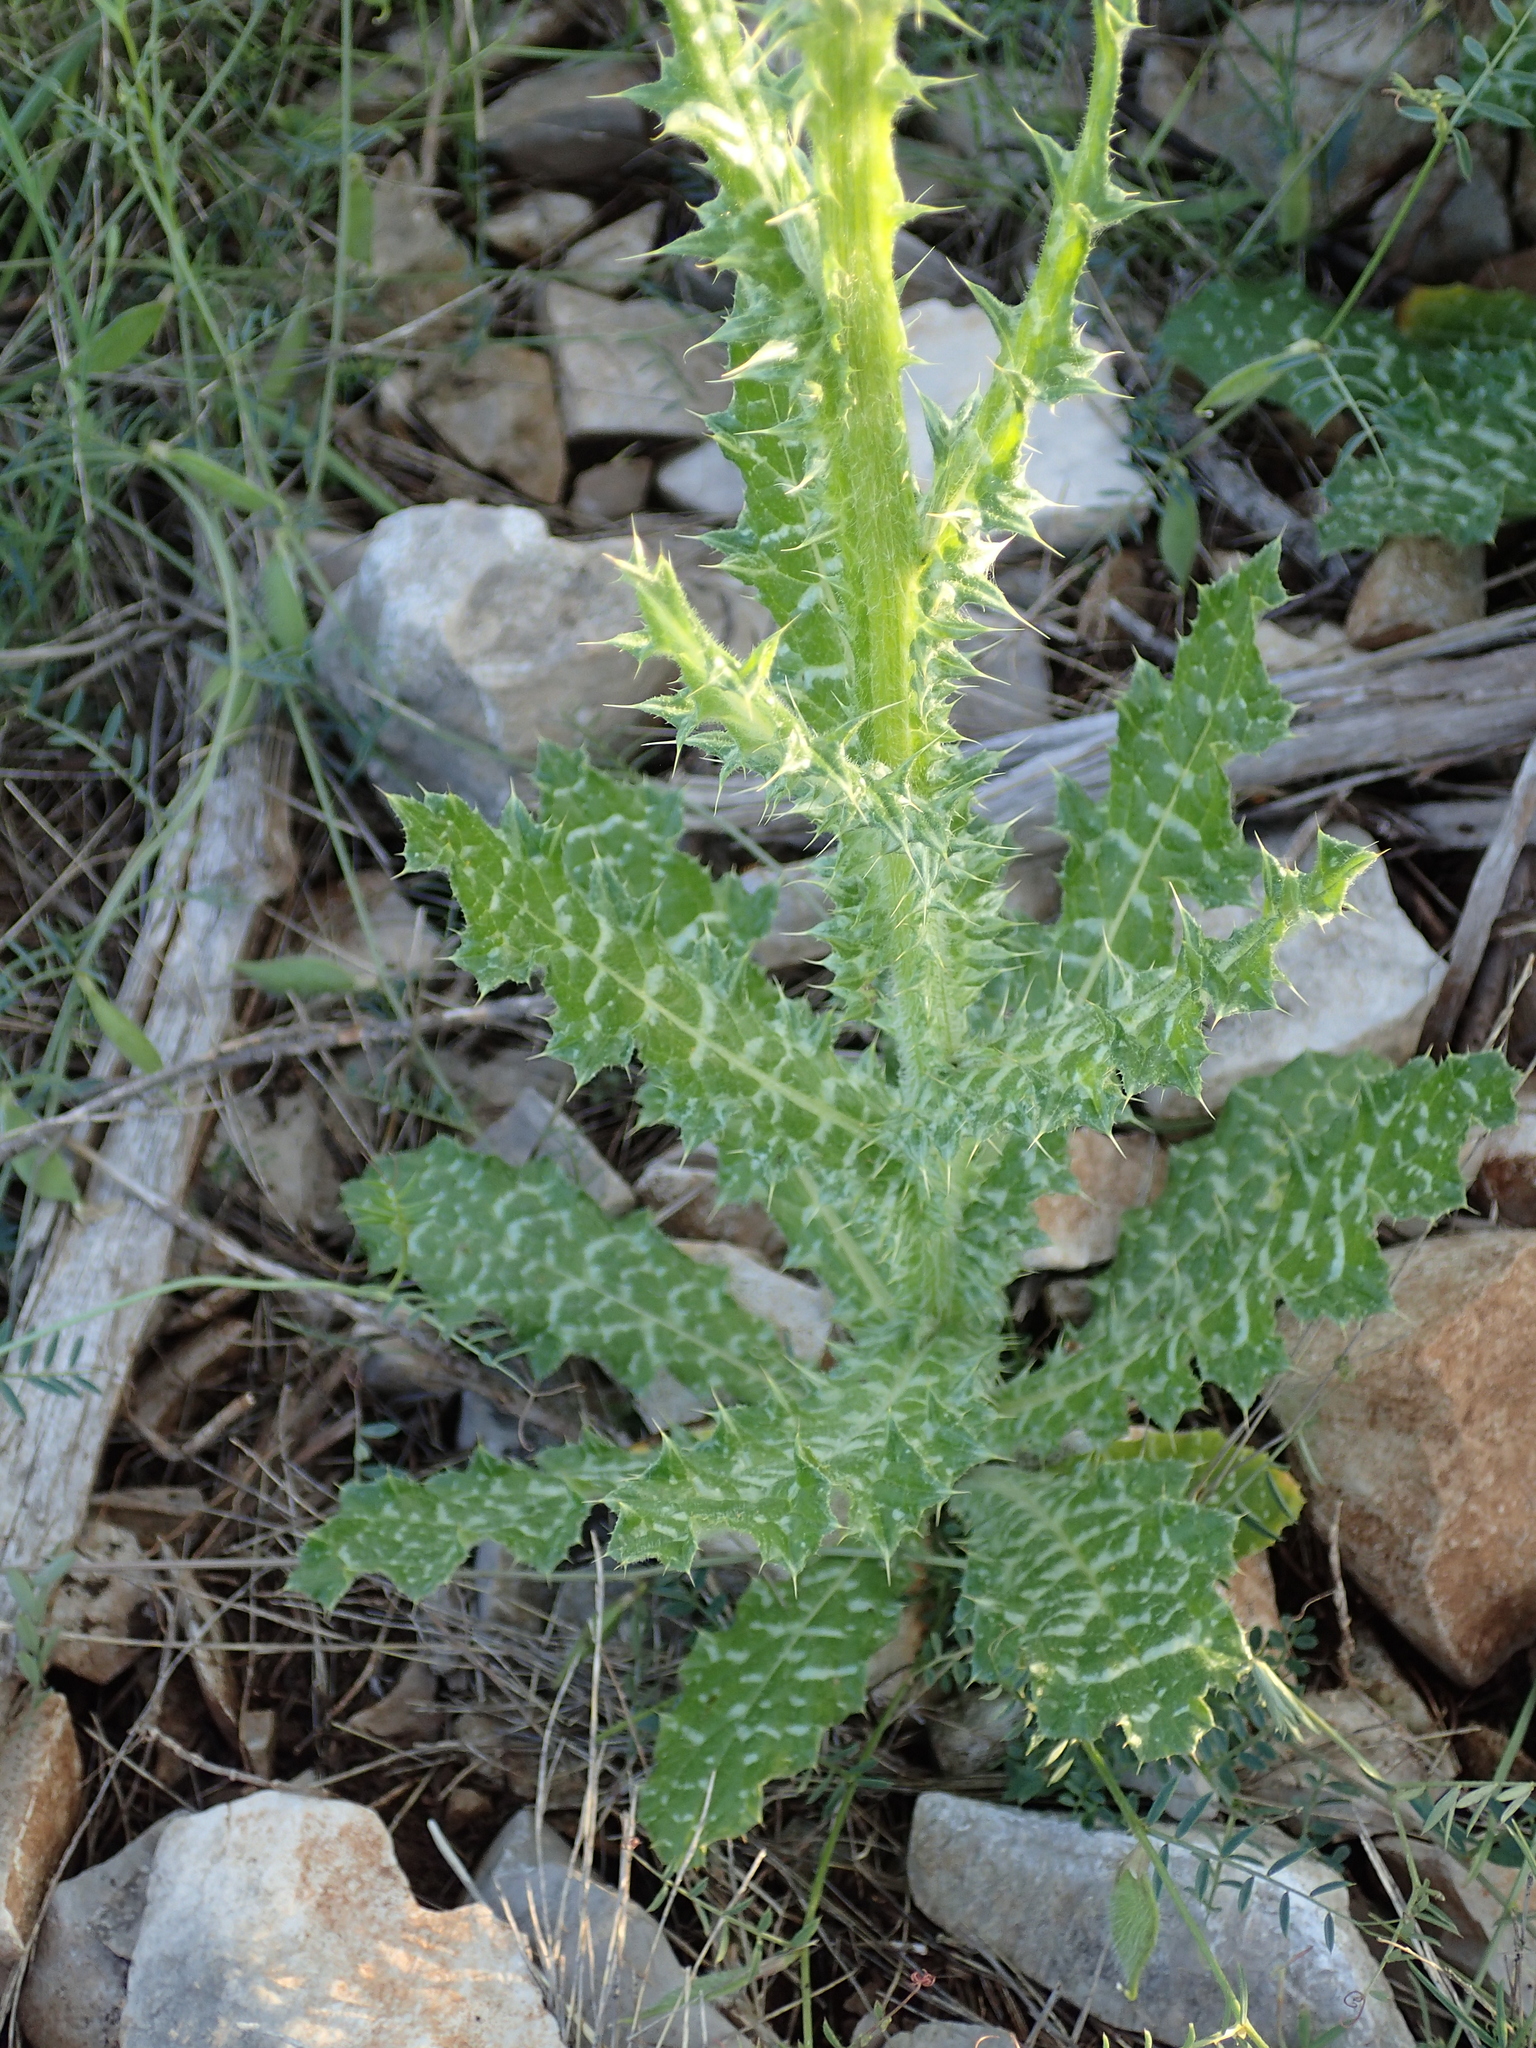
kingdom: Plantae
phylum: Tracheophyta
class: Magnoliopsida
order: Asterales
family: Asteraceae
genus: Tyrimnus
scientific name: Tyrimnus leucographus
